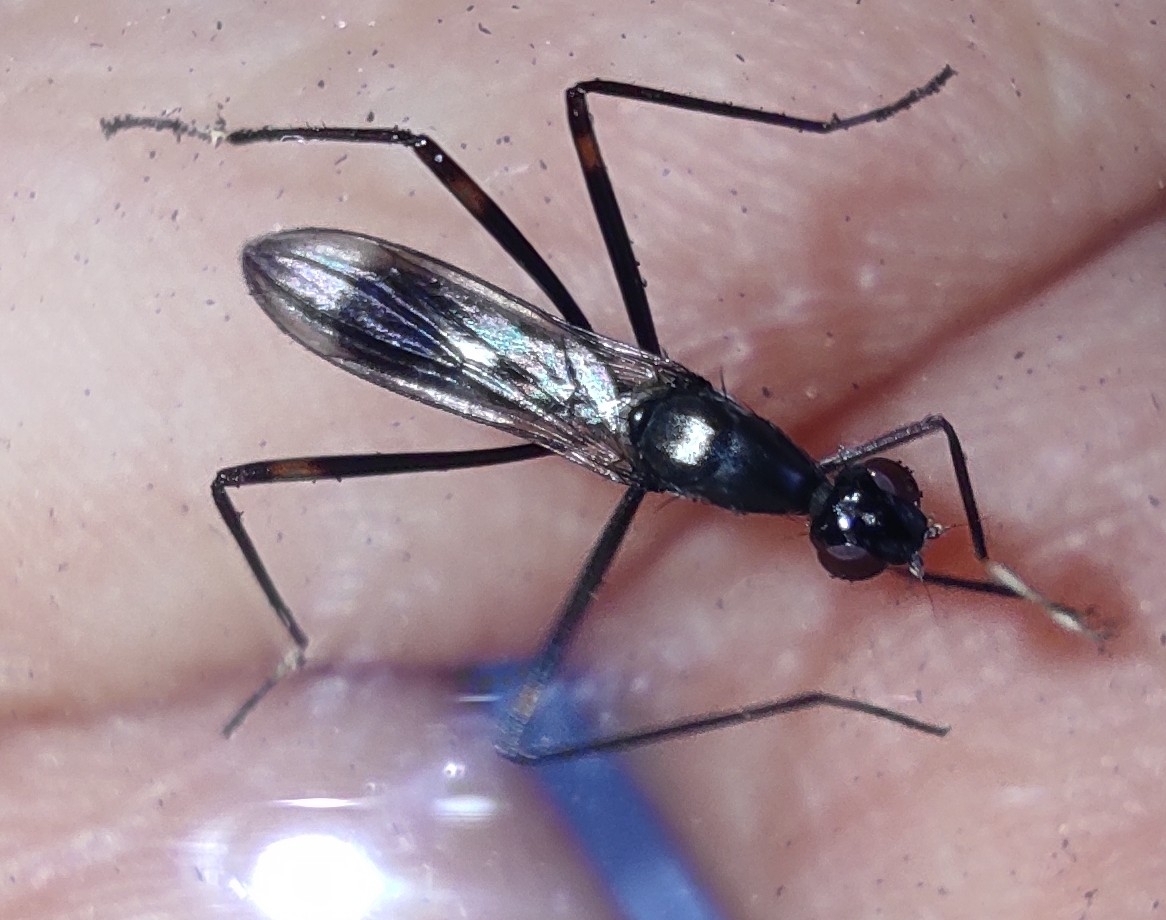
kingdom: Animalia
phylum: Arthropoda
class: Insecta
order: Diptera
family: Micropezidae
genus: Rainieria
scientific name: Rainieria calceata
